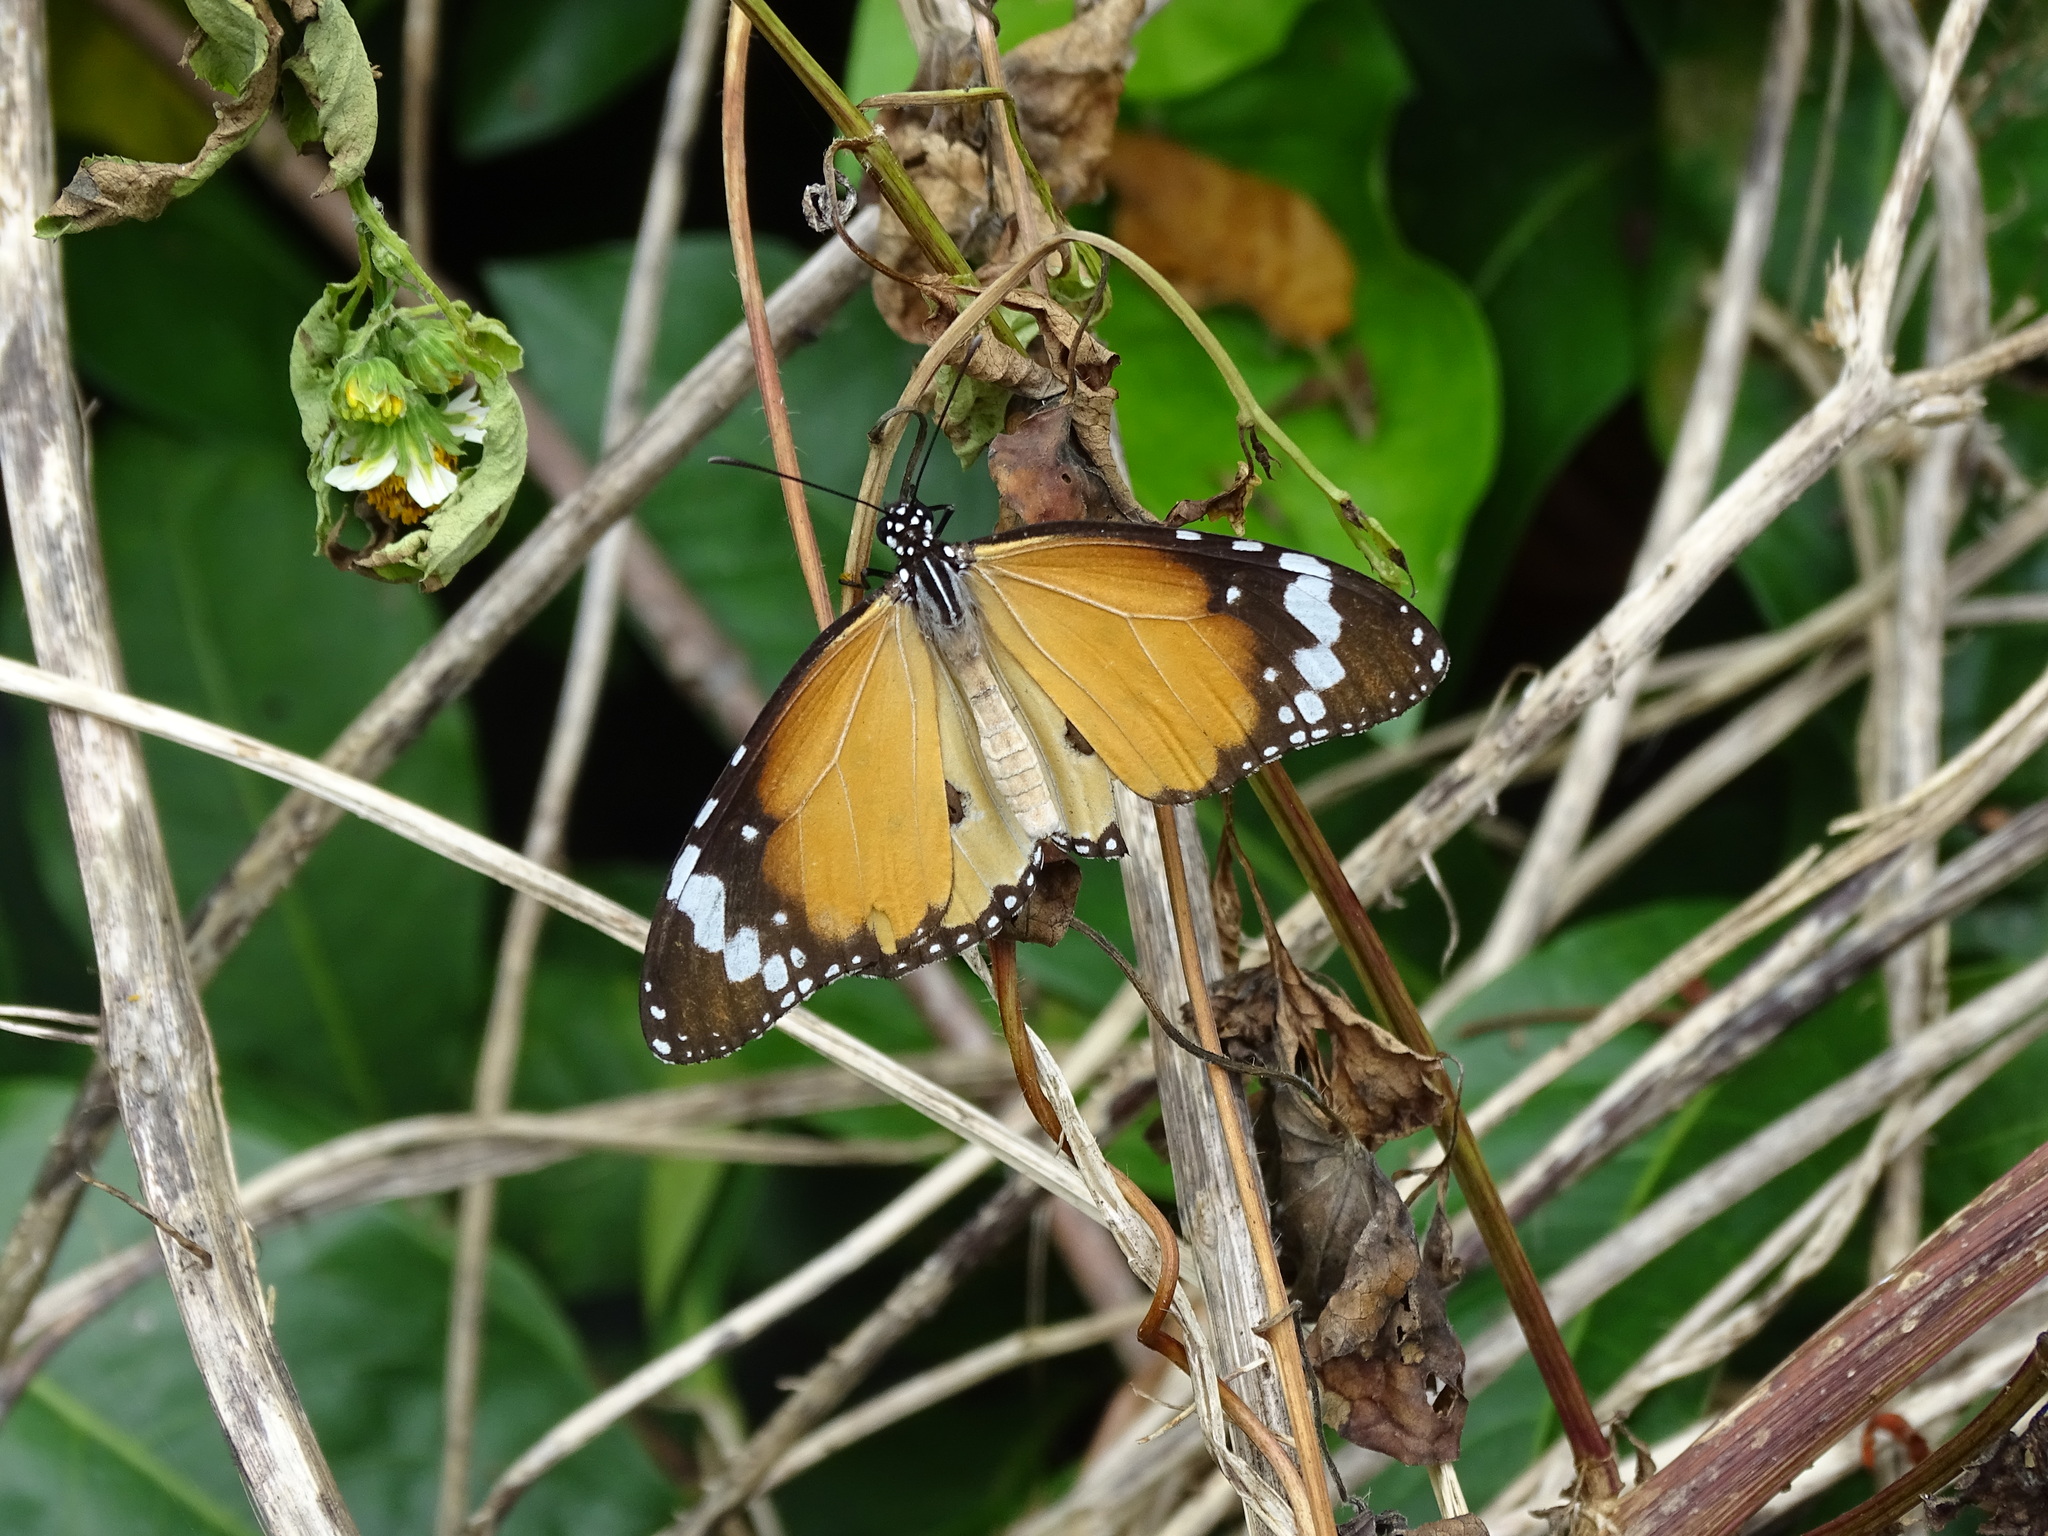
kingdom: Animalia
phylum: Arthropoda
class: Insecta
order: Lepidoptera
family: Nymphalidae
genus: Danaus
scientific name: Danaus chrysippus
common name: Plain tiger
